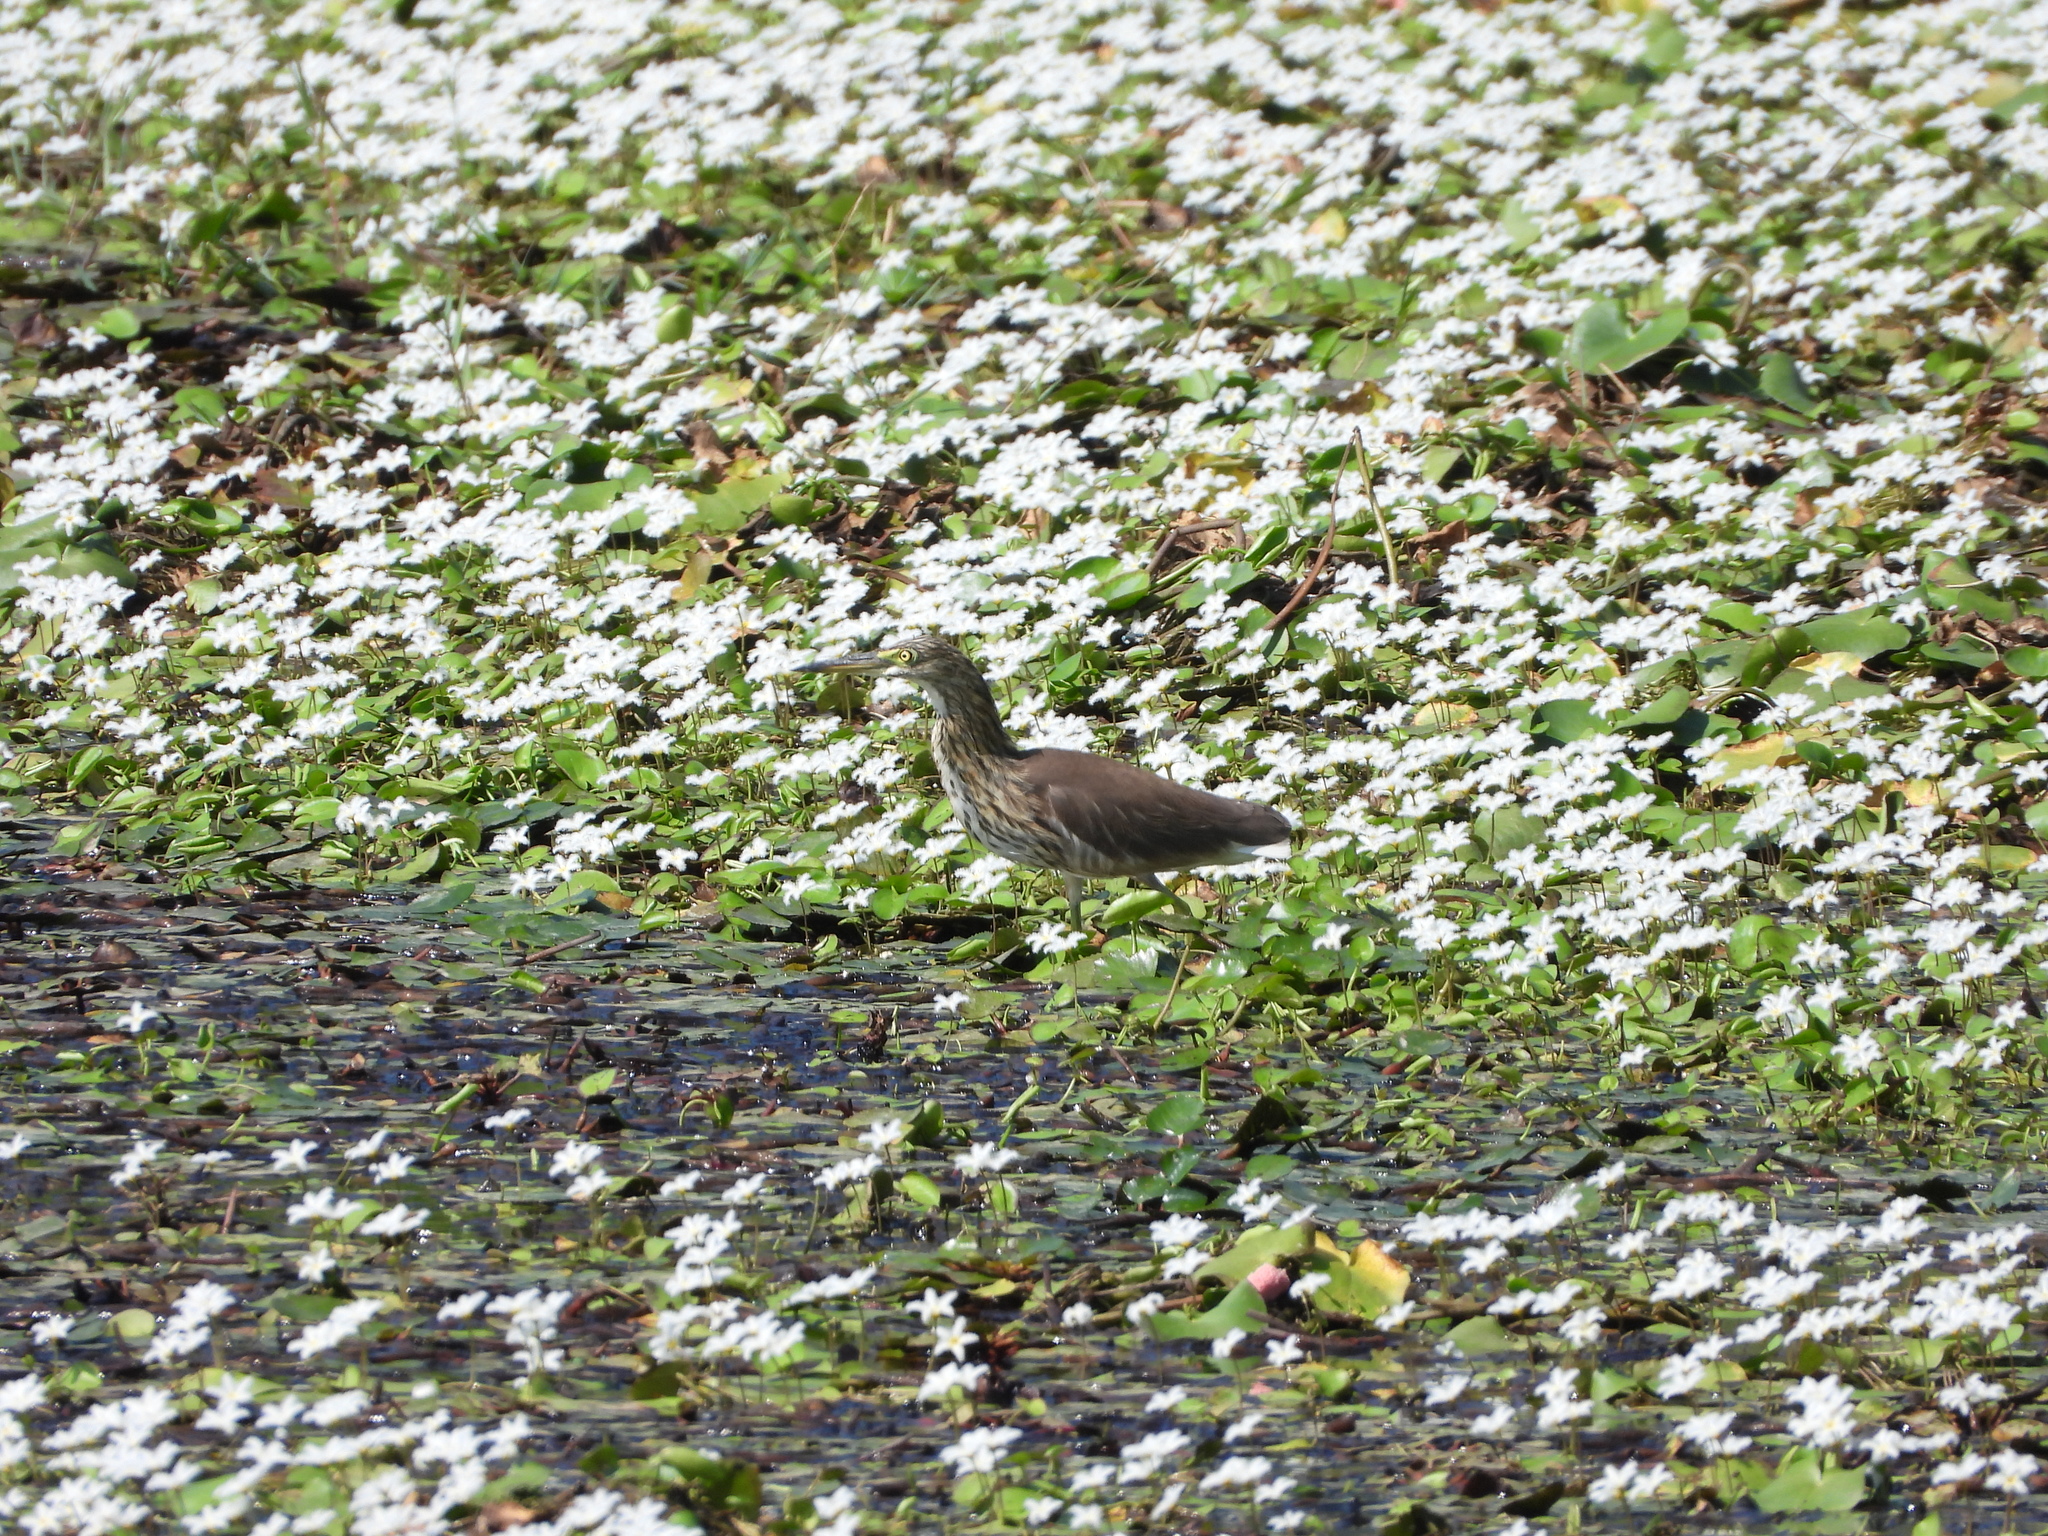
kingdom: Animalia
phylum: Chordata
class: Aves
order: Pelecaniformes
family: Ardeidae
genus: Ardeola
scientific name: Ardeola bacchus
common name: Chinese pond heron
